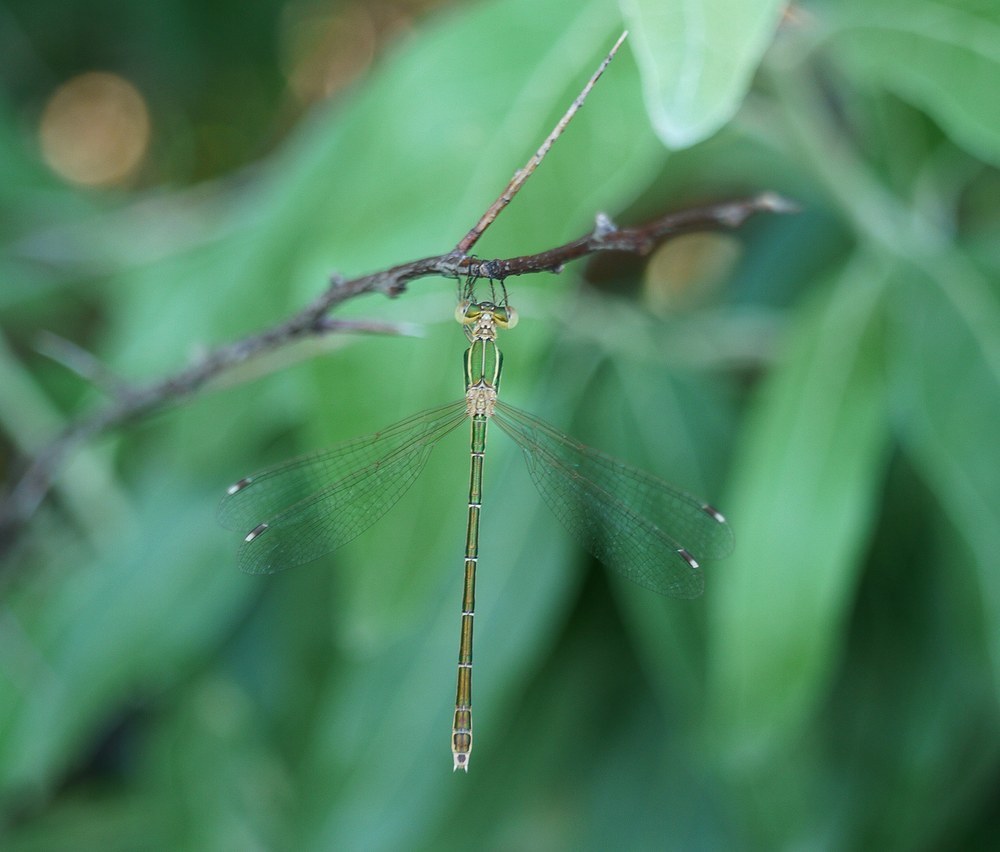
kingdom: Animalia
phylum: Arthropoda
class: Insecta
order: Odonata
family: Lestidae
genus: Lestes
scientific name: Lestes barbarus
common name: Migrant spreadwing
